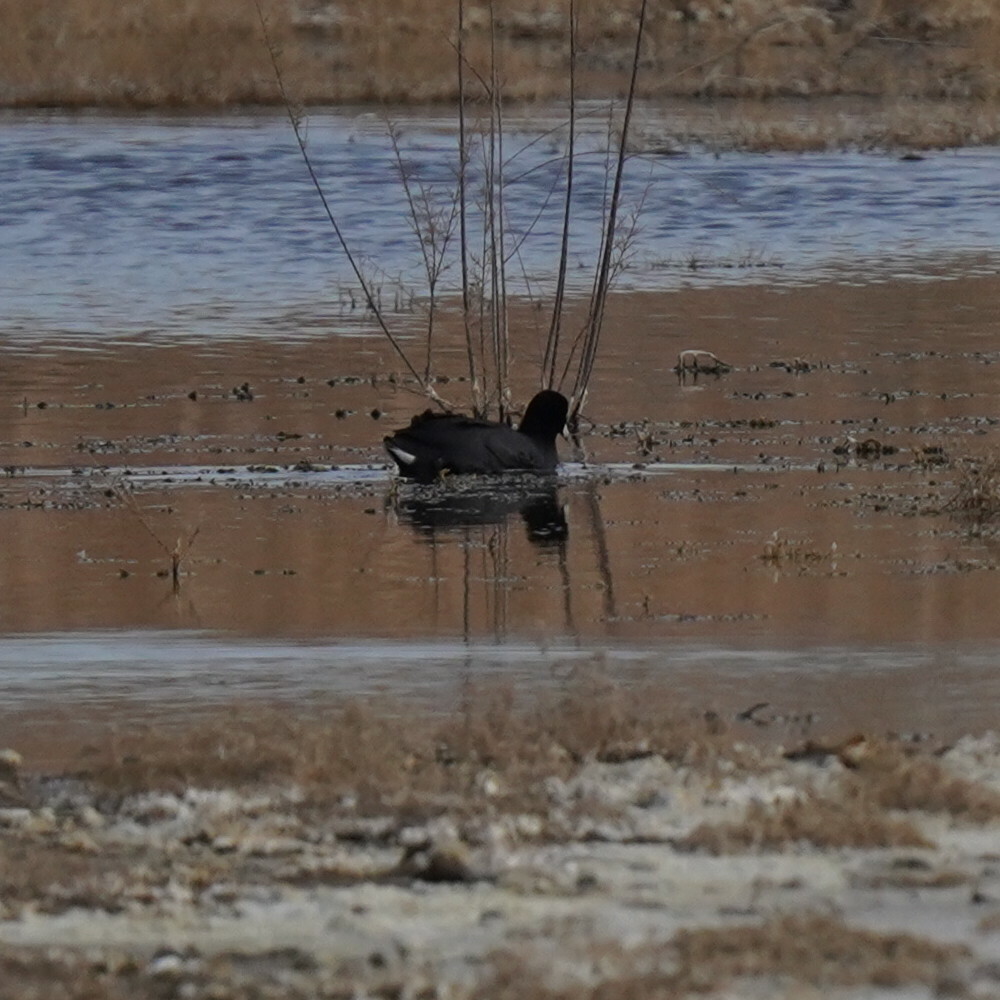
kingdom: Animalia
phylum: Chordata
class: Aves
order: Gruiformes
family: Rallidae
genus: Fulica
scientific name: Fulica americana
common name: American coot
